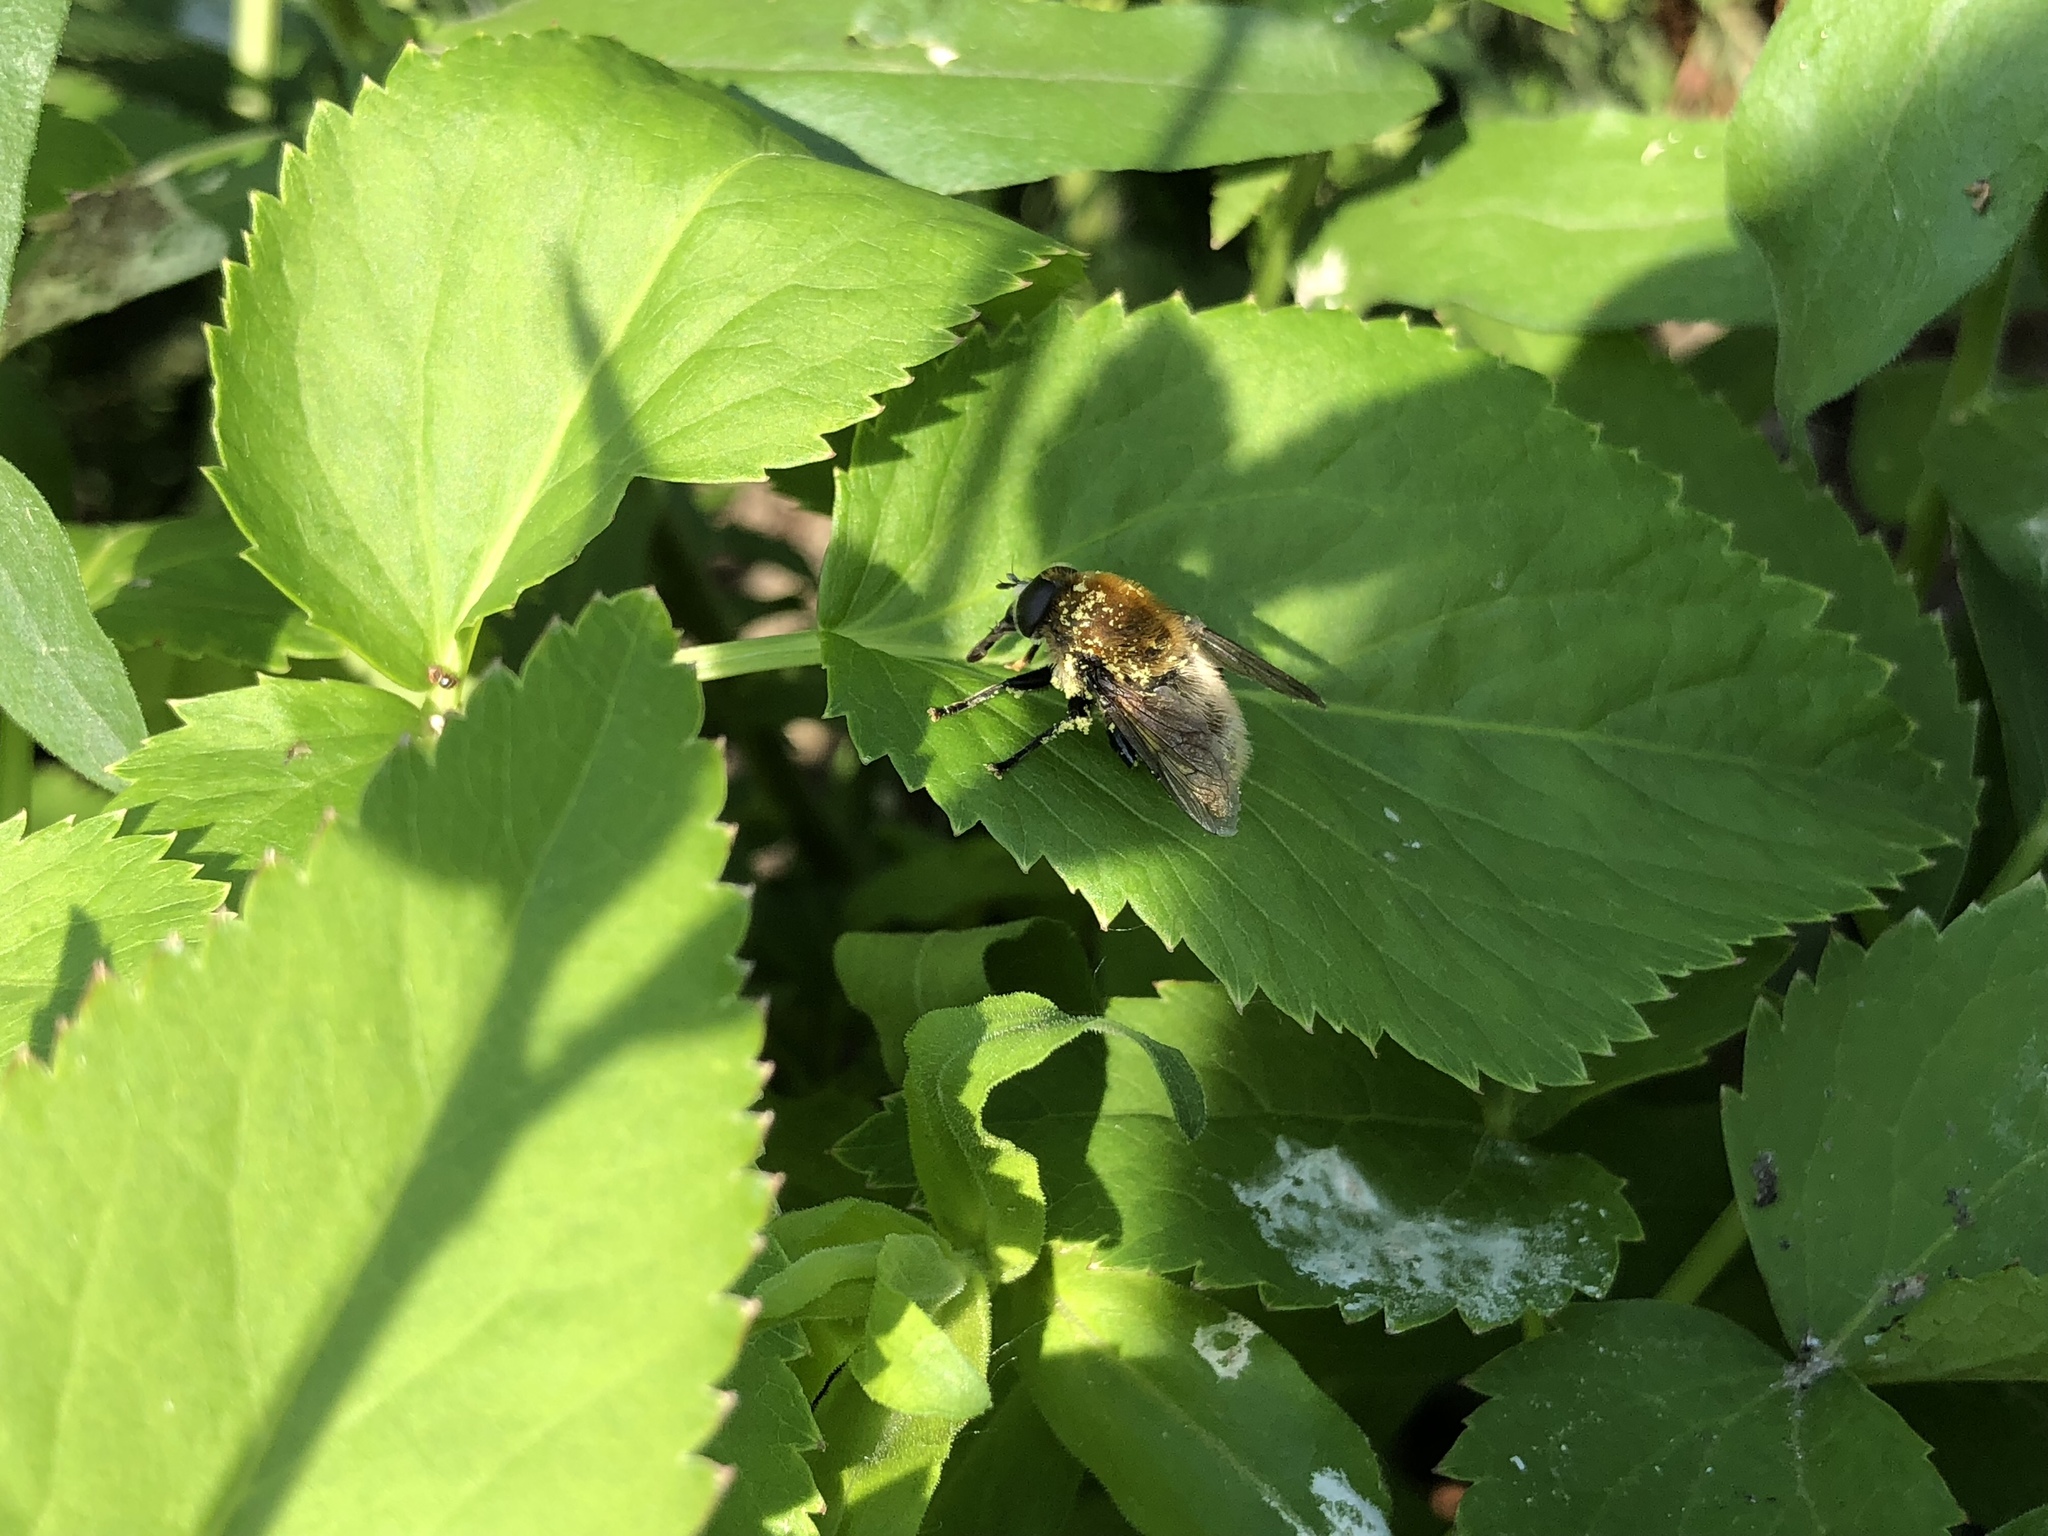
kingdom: Animalia
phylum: Arthropoda
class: Insecta
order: Diptera
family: Syrphidae
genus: Merodon
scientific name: Merodon equestris
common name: Greater bulb-fly
